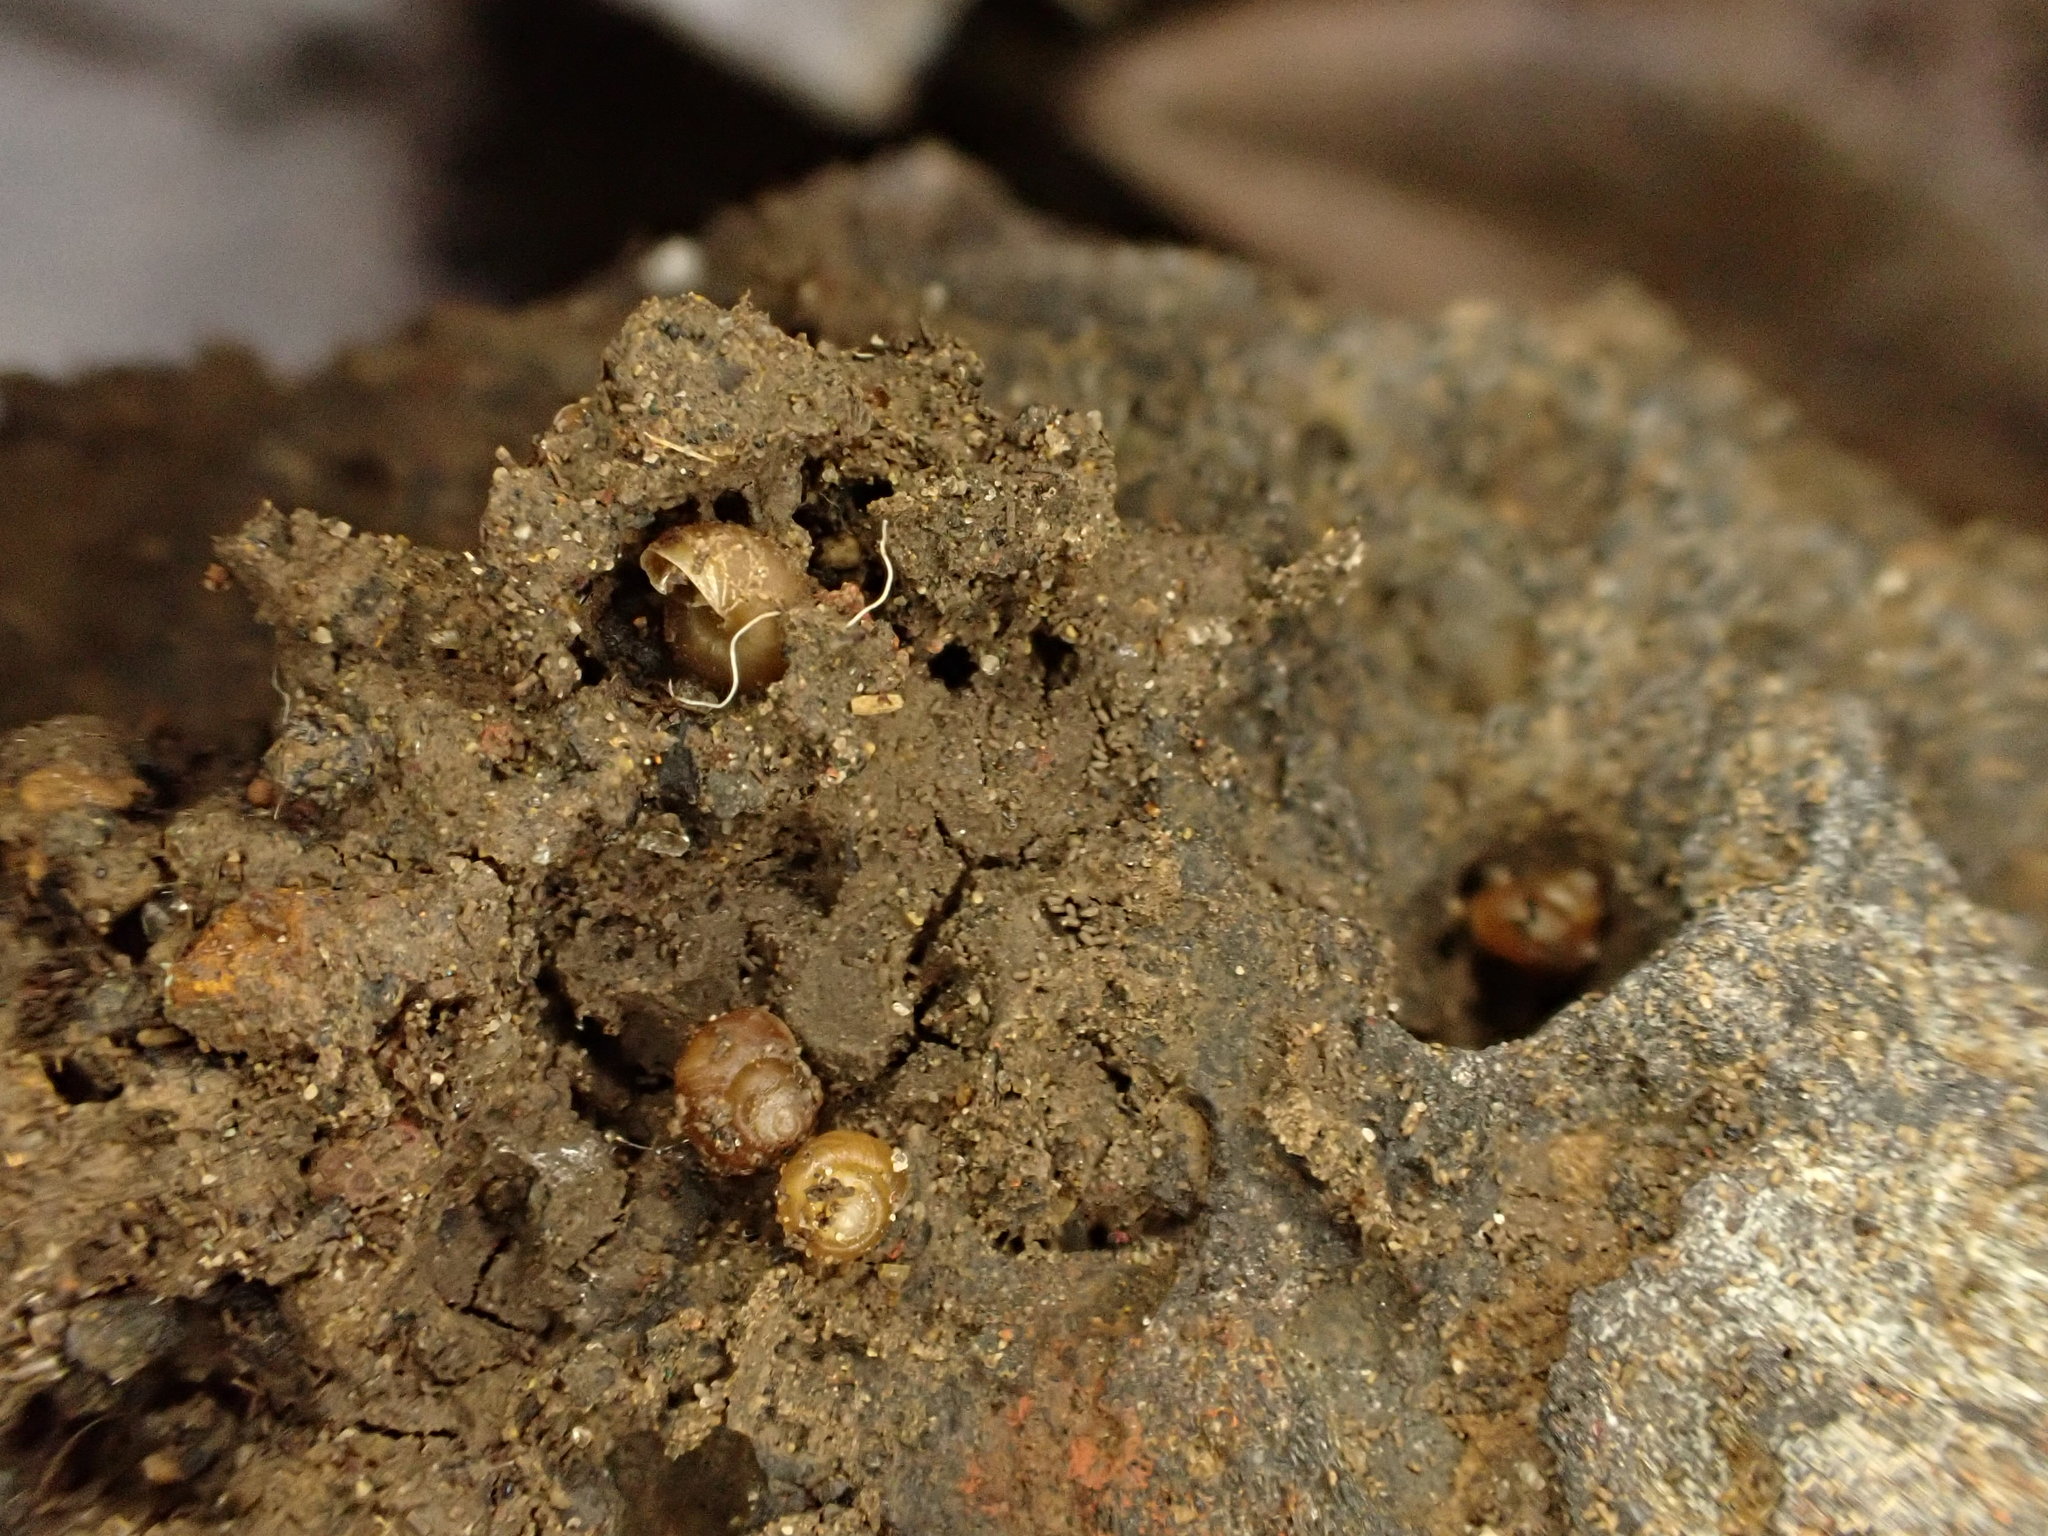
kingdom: Animalia
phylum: Mollusca
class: Gastropoda
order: Littorinimorpha
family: Assimineidae
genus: Suterilla
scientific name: Suterilla neozelanica
